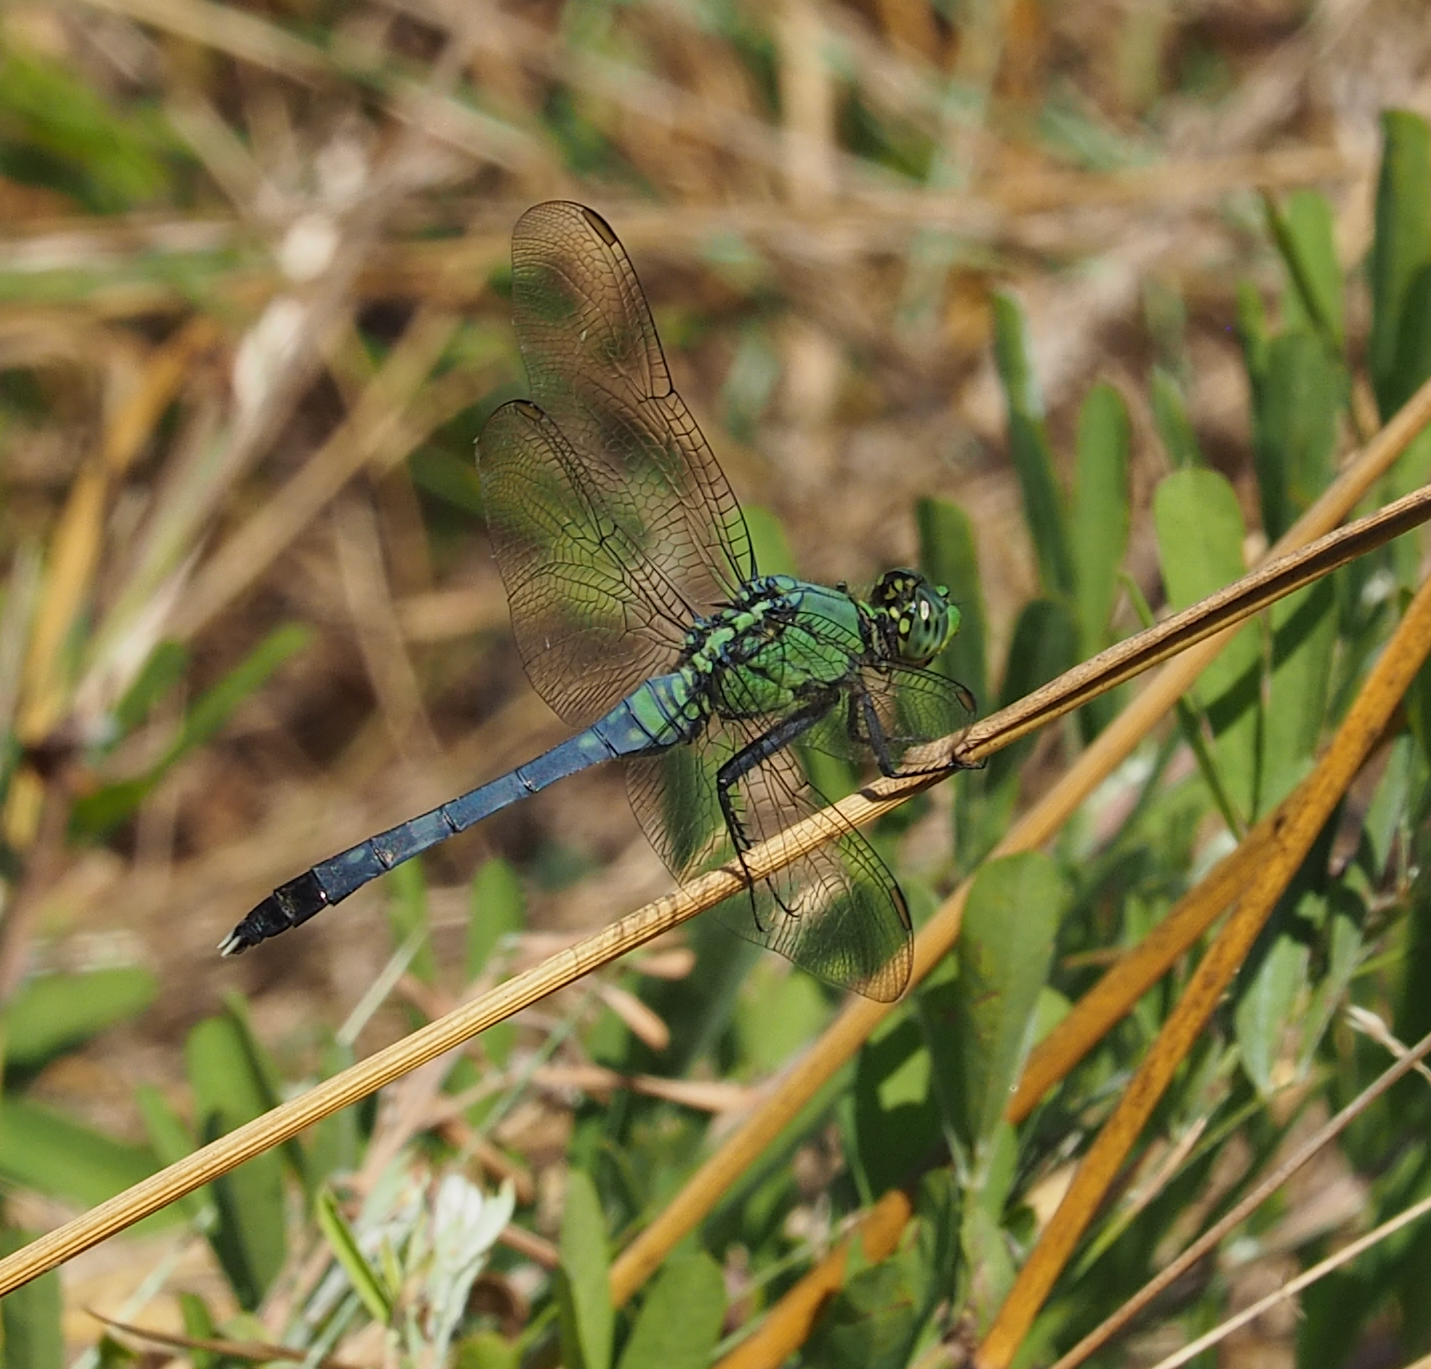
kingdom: Animalia
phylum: Arthropoda
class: Insecta
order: Odonata
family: Libellulidae
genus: Erythemis
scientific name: Erythemis simplicicollis
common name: Eastern pondhawk
